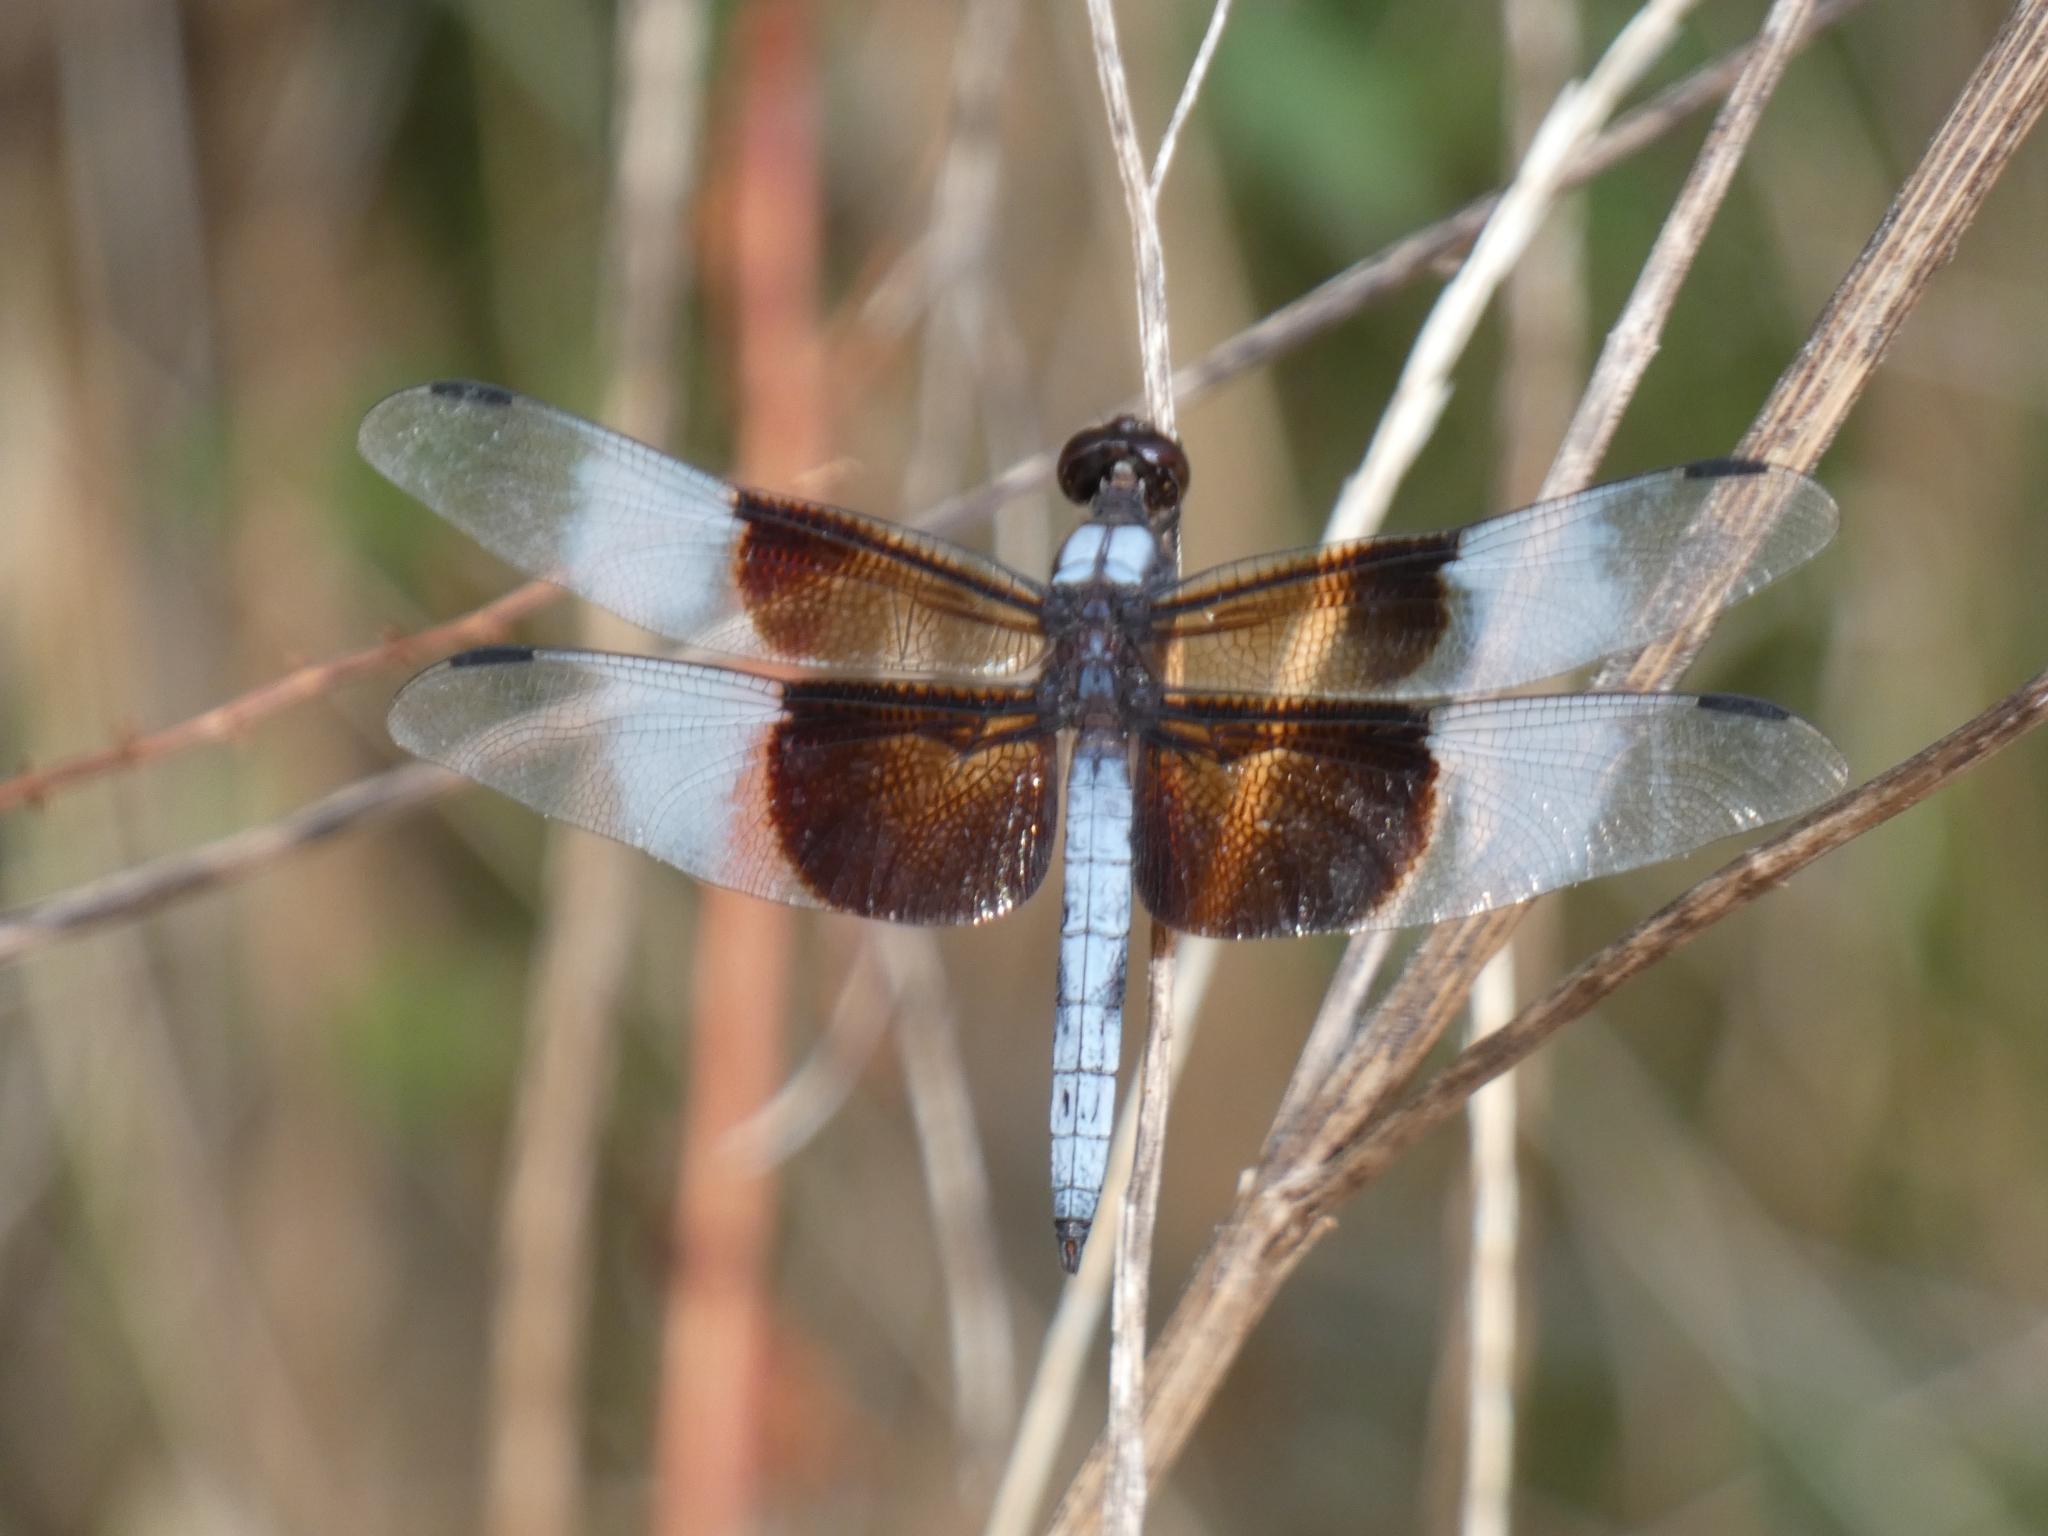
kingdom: Animalia
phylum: Arthropoda
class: Insecta
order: Odonata
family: Libellulidae
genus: Libellula
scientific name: Libellula luctuosa
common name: Widow skimmer
